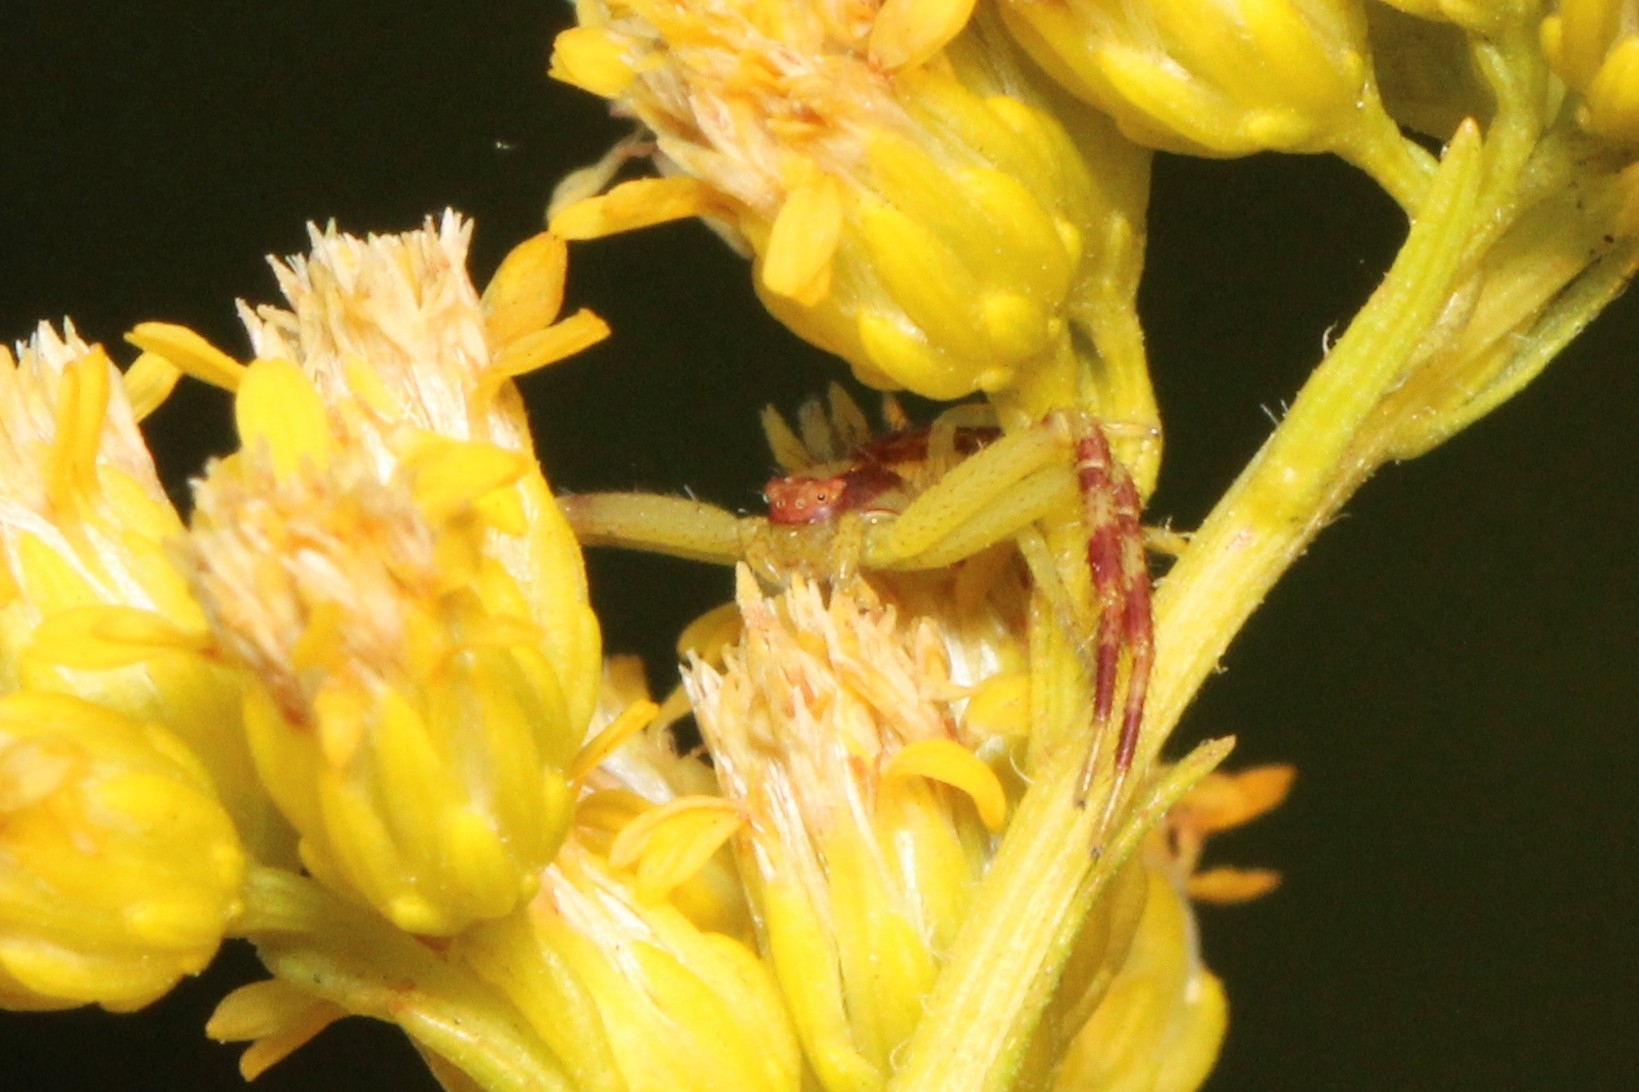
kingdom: Animalia
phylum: Arthropoda
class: Arachnida
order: Araneae
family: Thomisidae
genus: Mecaphesa
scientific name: Mecaphesa asperata
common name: Crab spiders
